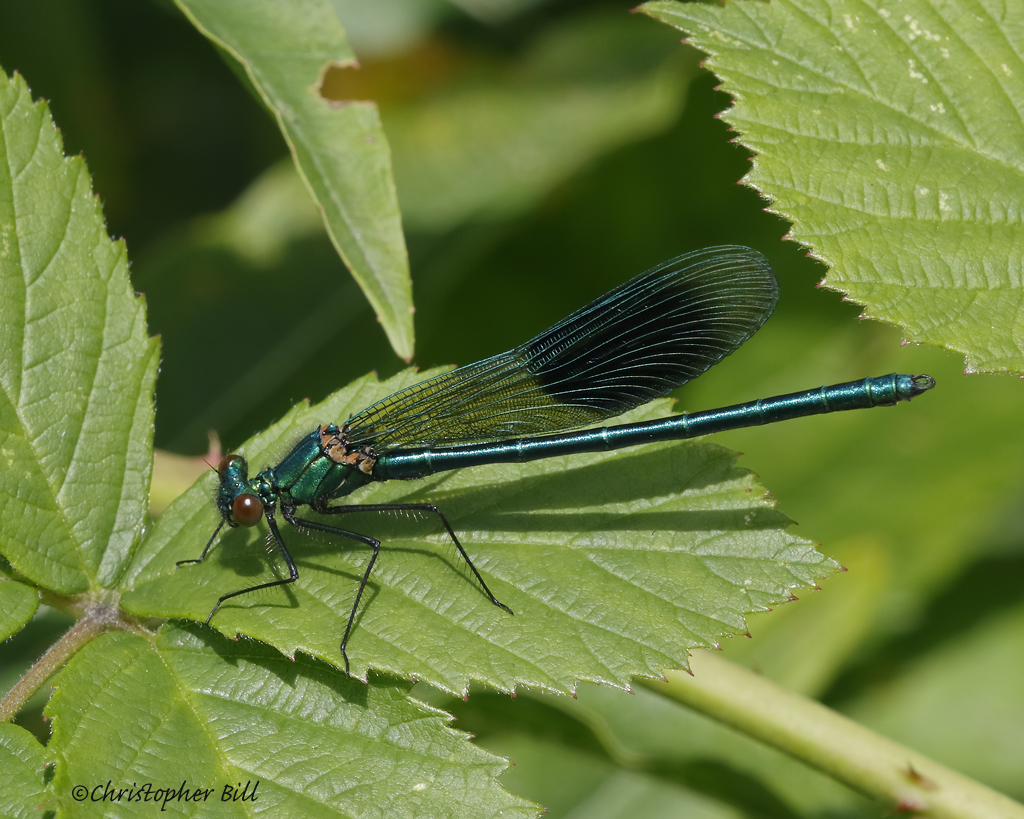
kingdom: Animalia
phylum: Arthropoda
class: Insecta
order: Odonata
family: Calopterygidae
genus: Calopteryx
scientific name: Calopteryx splendens
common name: Banded demoiselle
